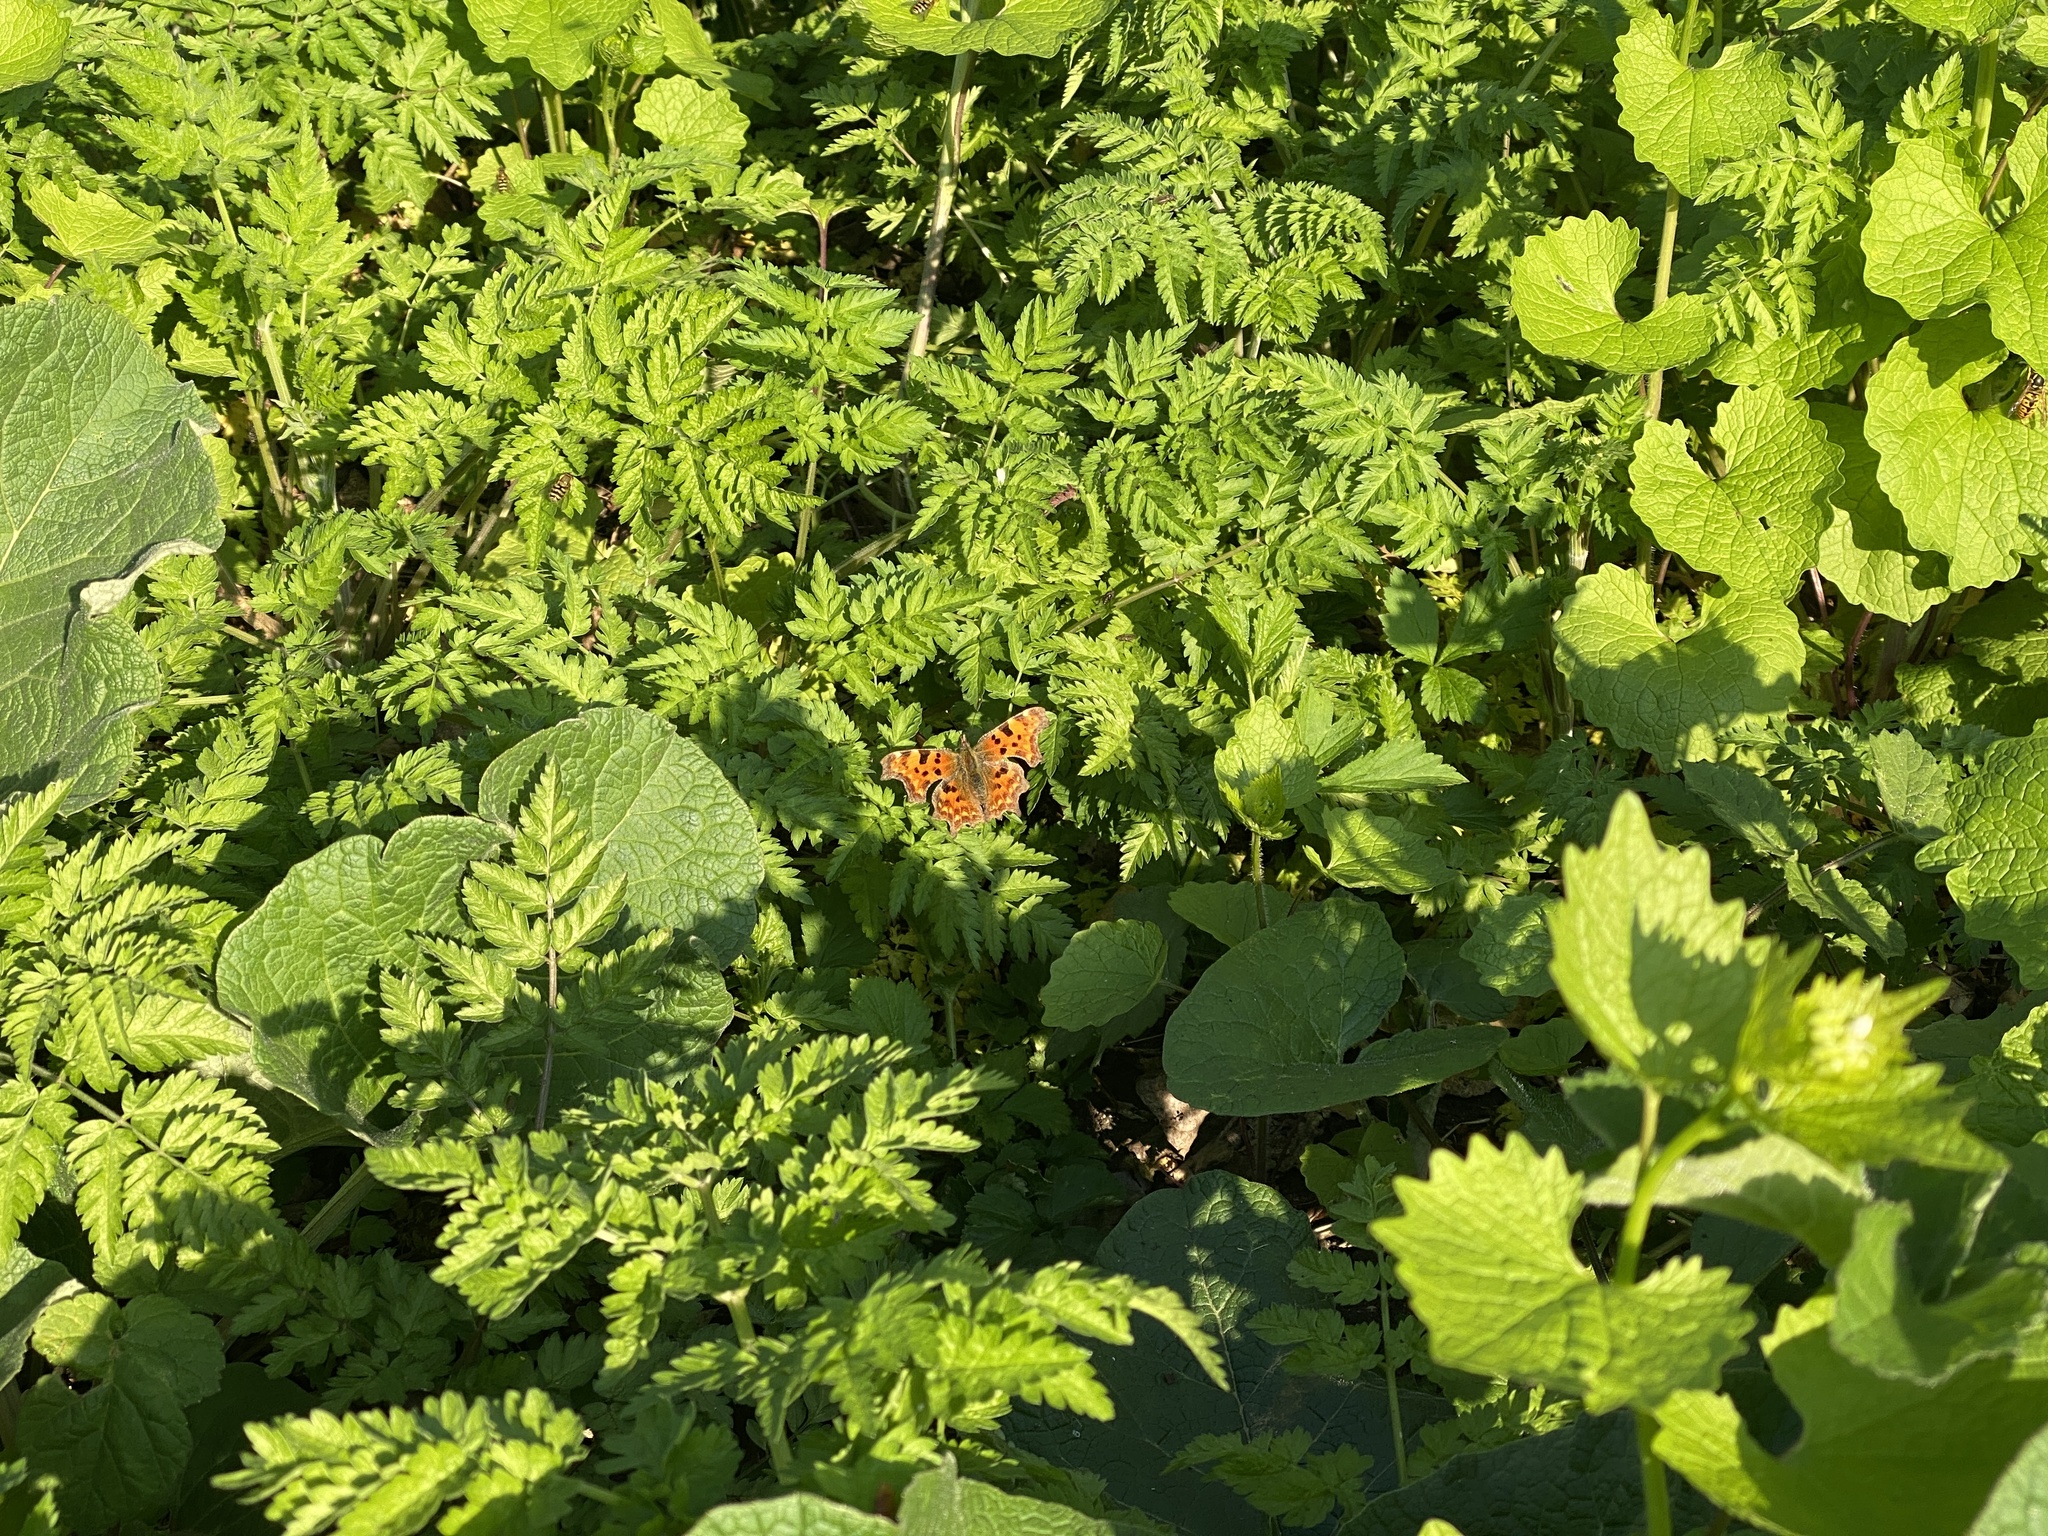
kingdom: Animalia
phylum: Arthropoda
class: Insecta
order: Lepidoptera
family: Nymphalidae
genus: Polygonia
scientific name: Polygonia c-album
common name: Comma
